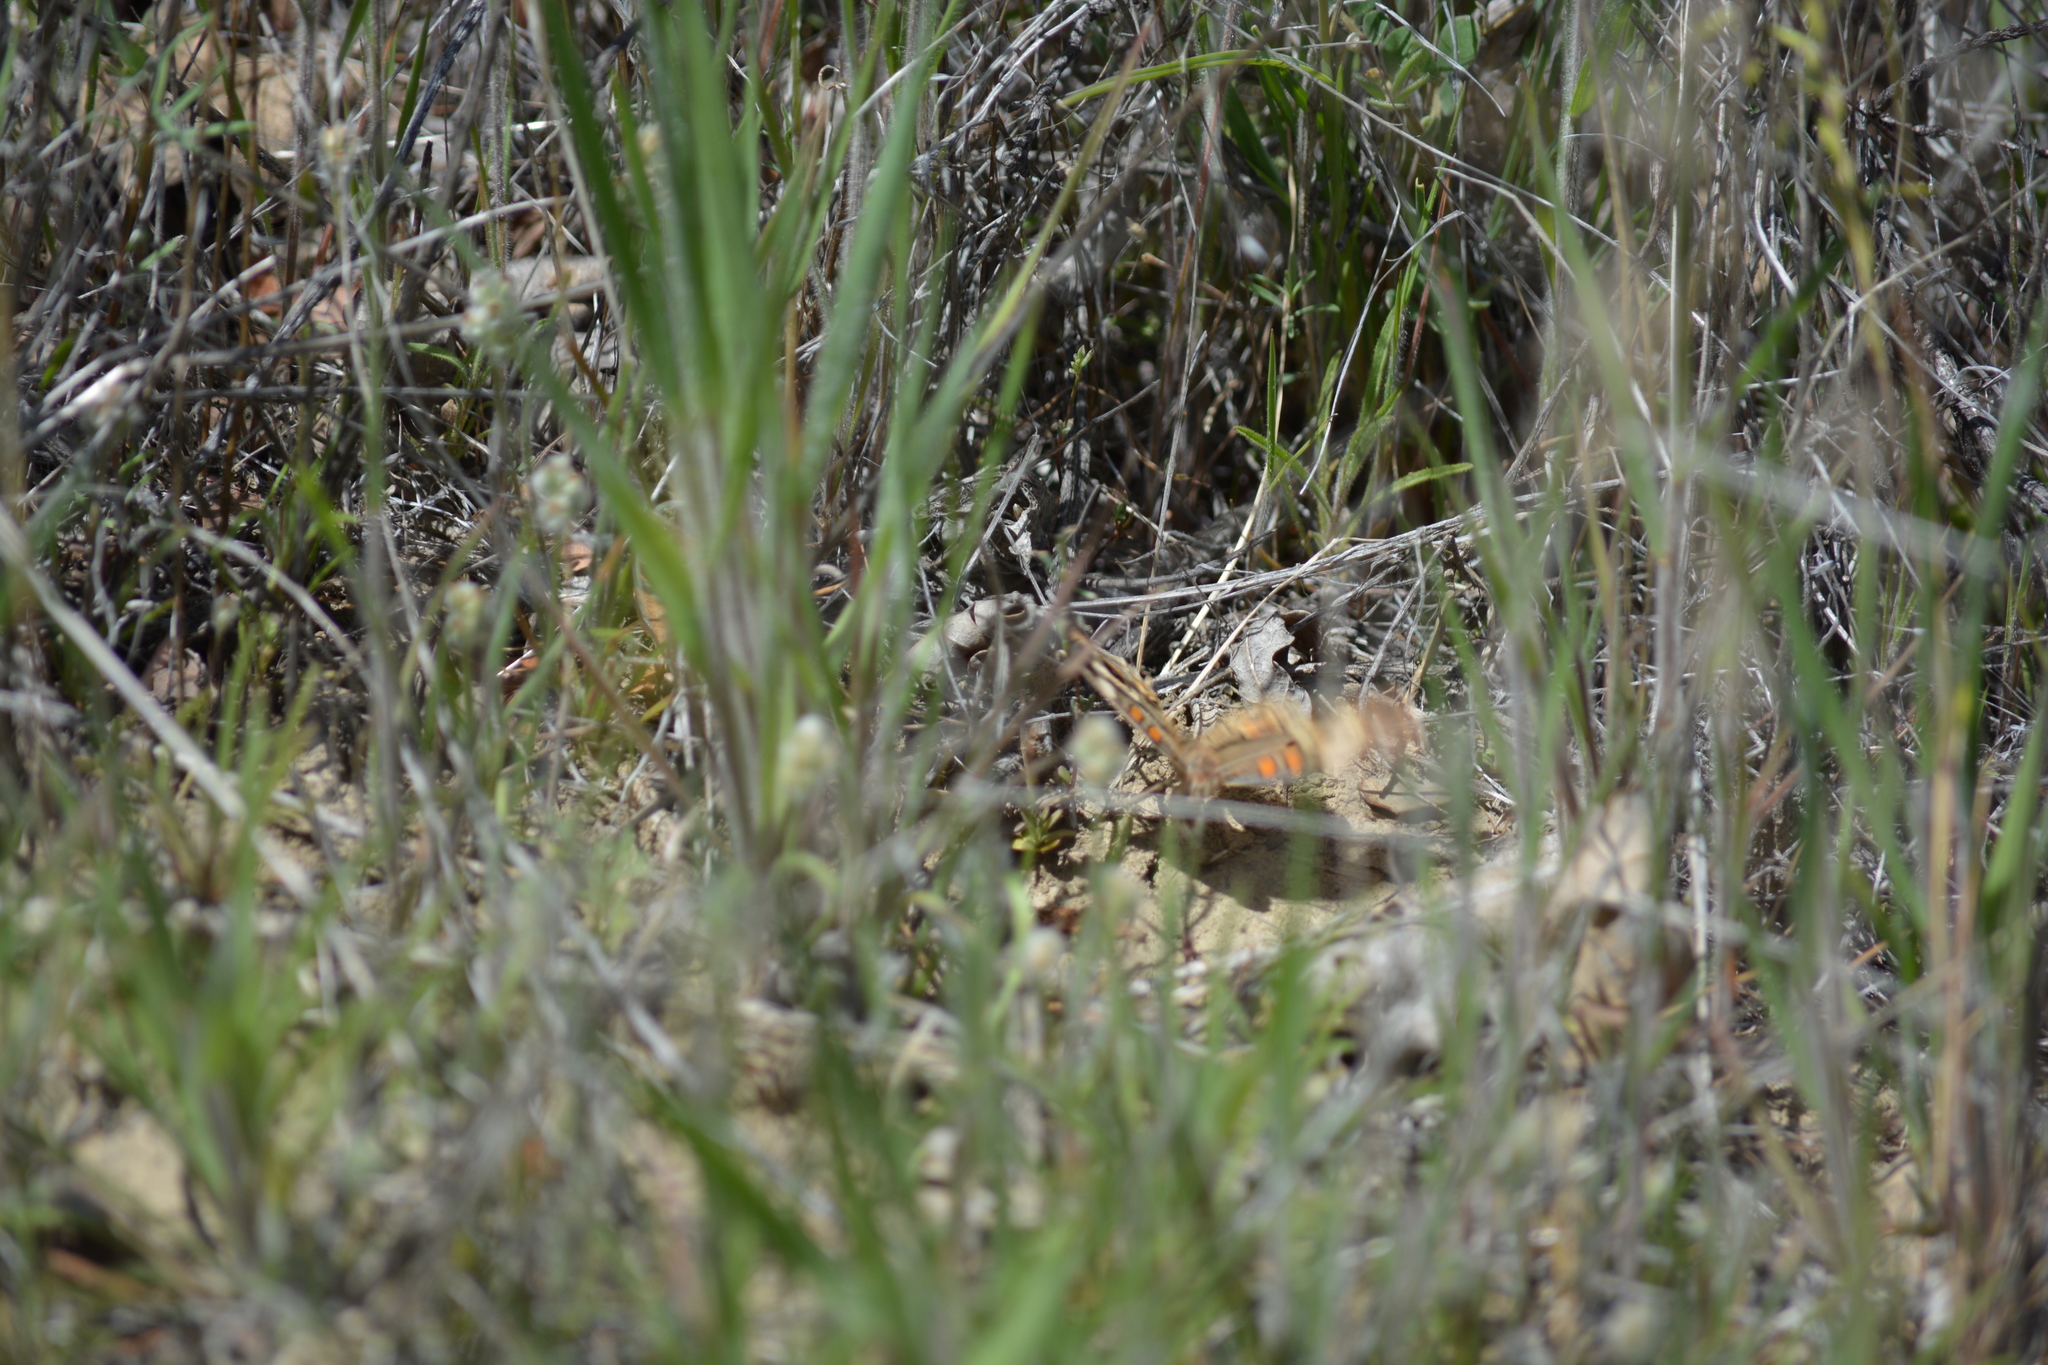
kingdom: Animalia
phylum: Arthropoda
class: Insecta
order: Lepidoptera
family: Nymphalidae
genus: Junonia
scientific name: Junonia grisea
